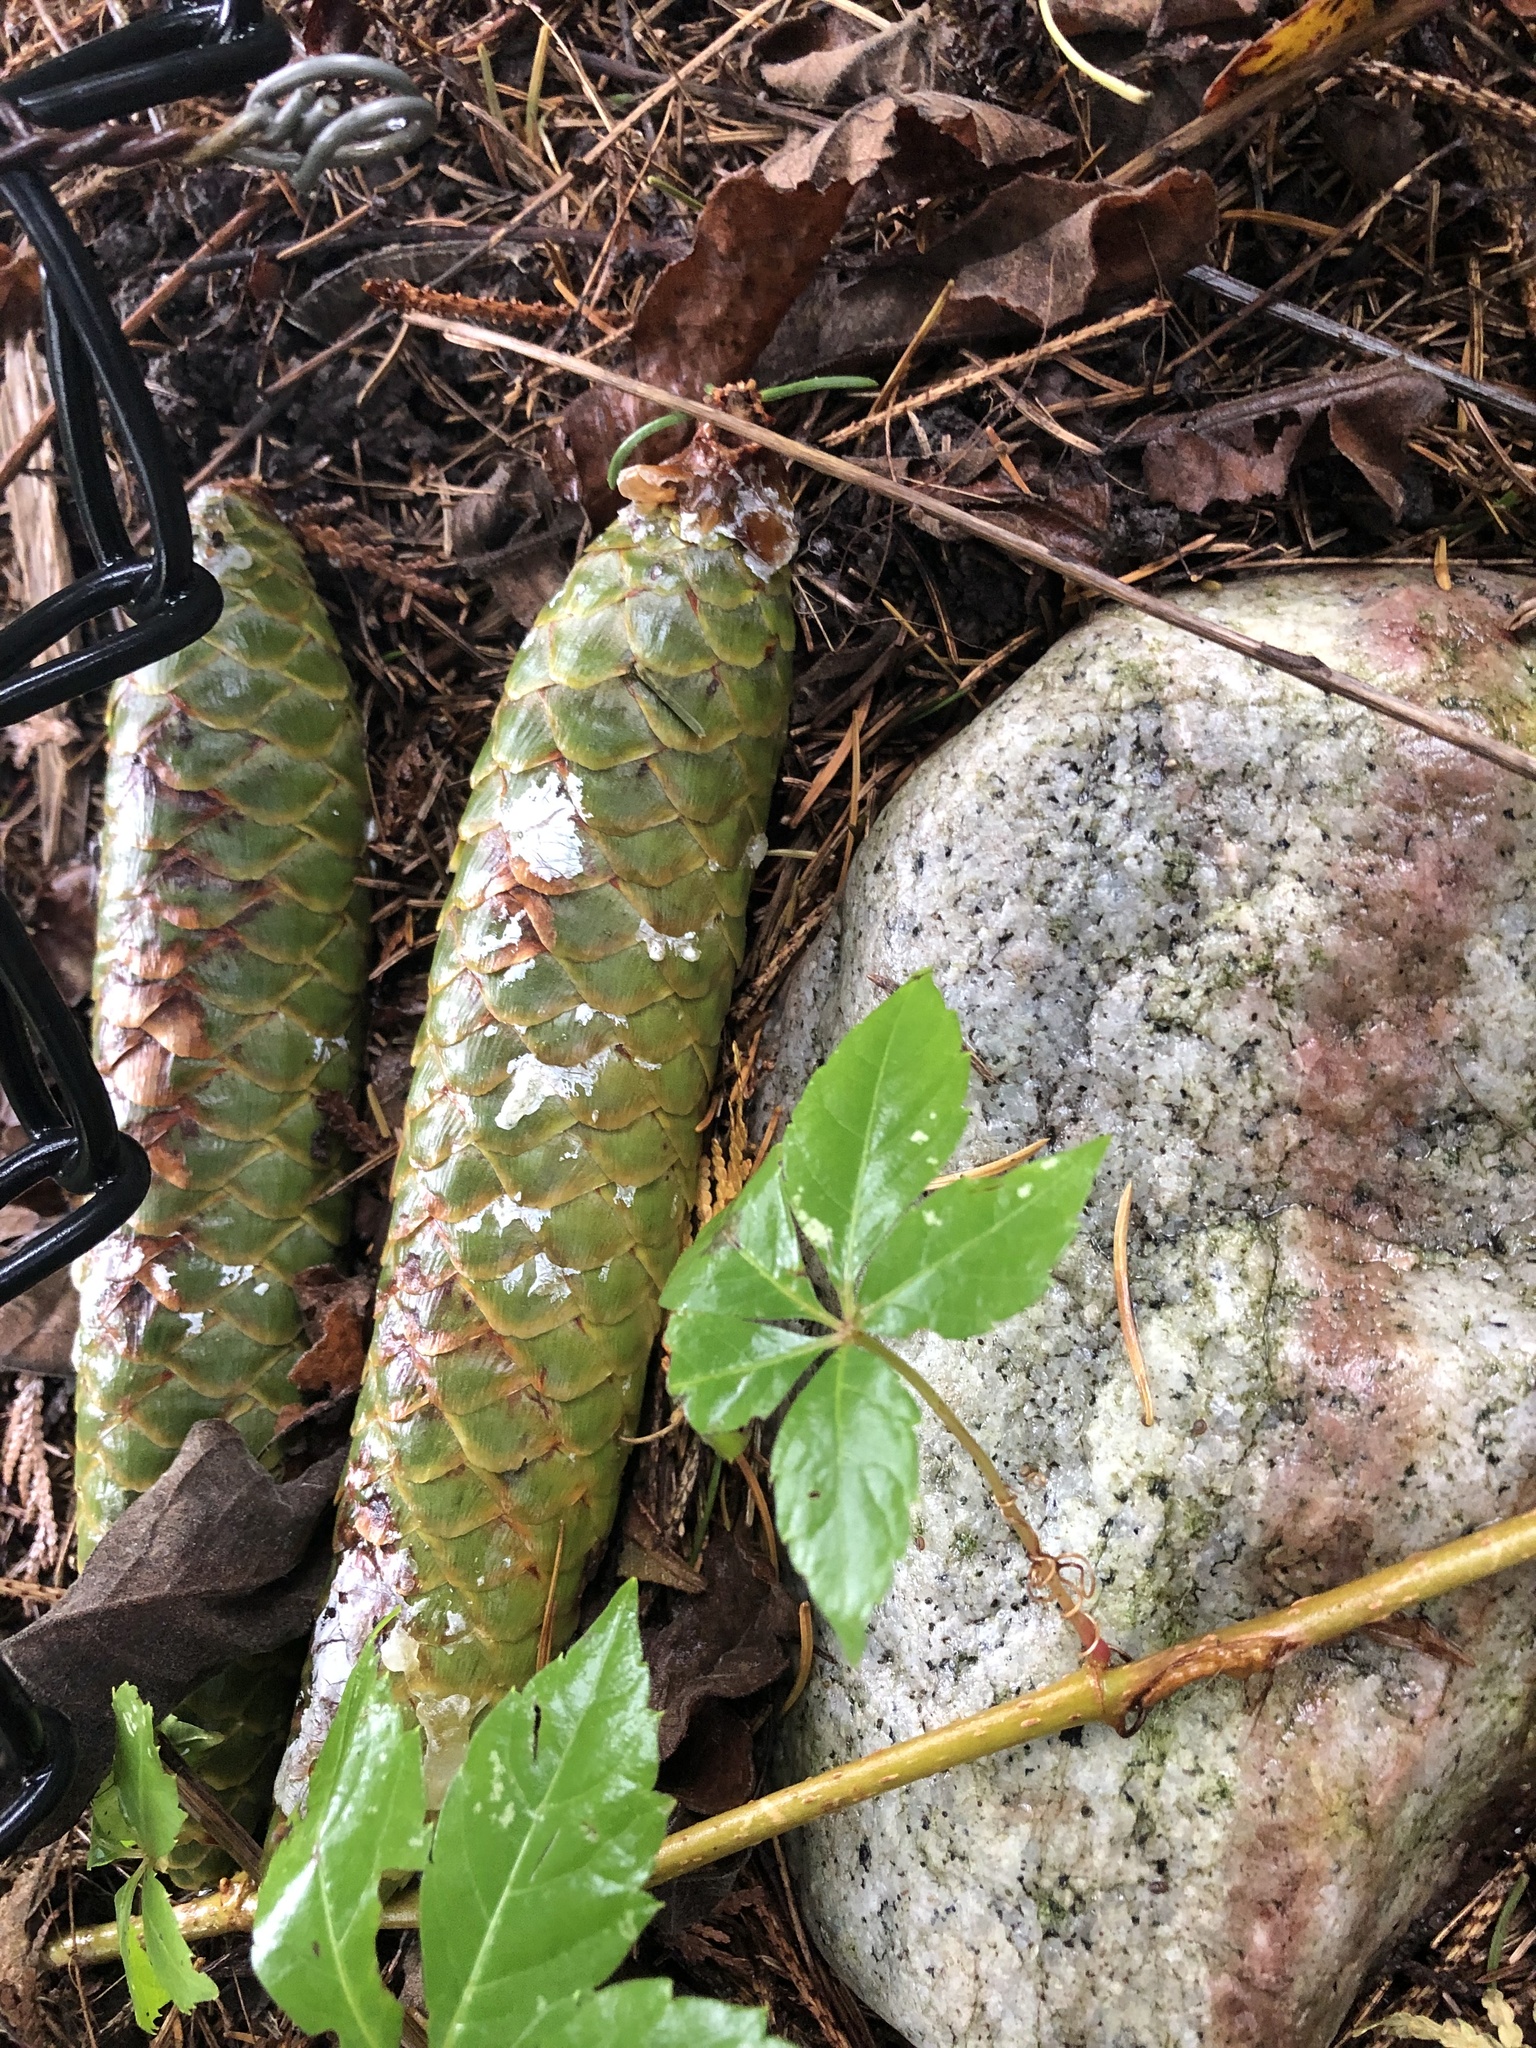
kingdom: Plantae
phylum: Tracheophyta
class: Pinopsida
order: Pinales
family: Pinaceae
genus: Picea
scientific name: Picea abies
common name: Norway spruce
